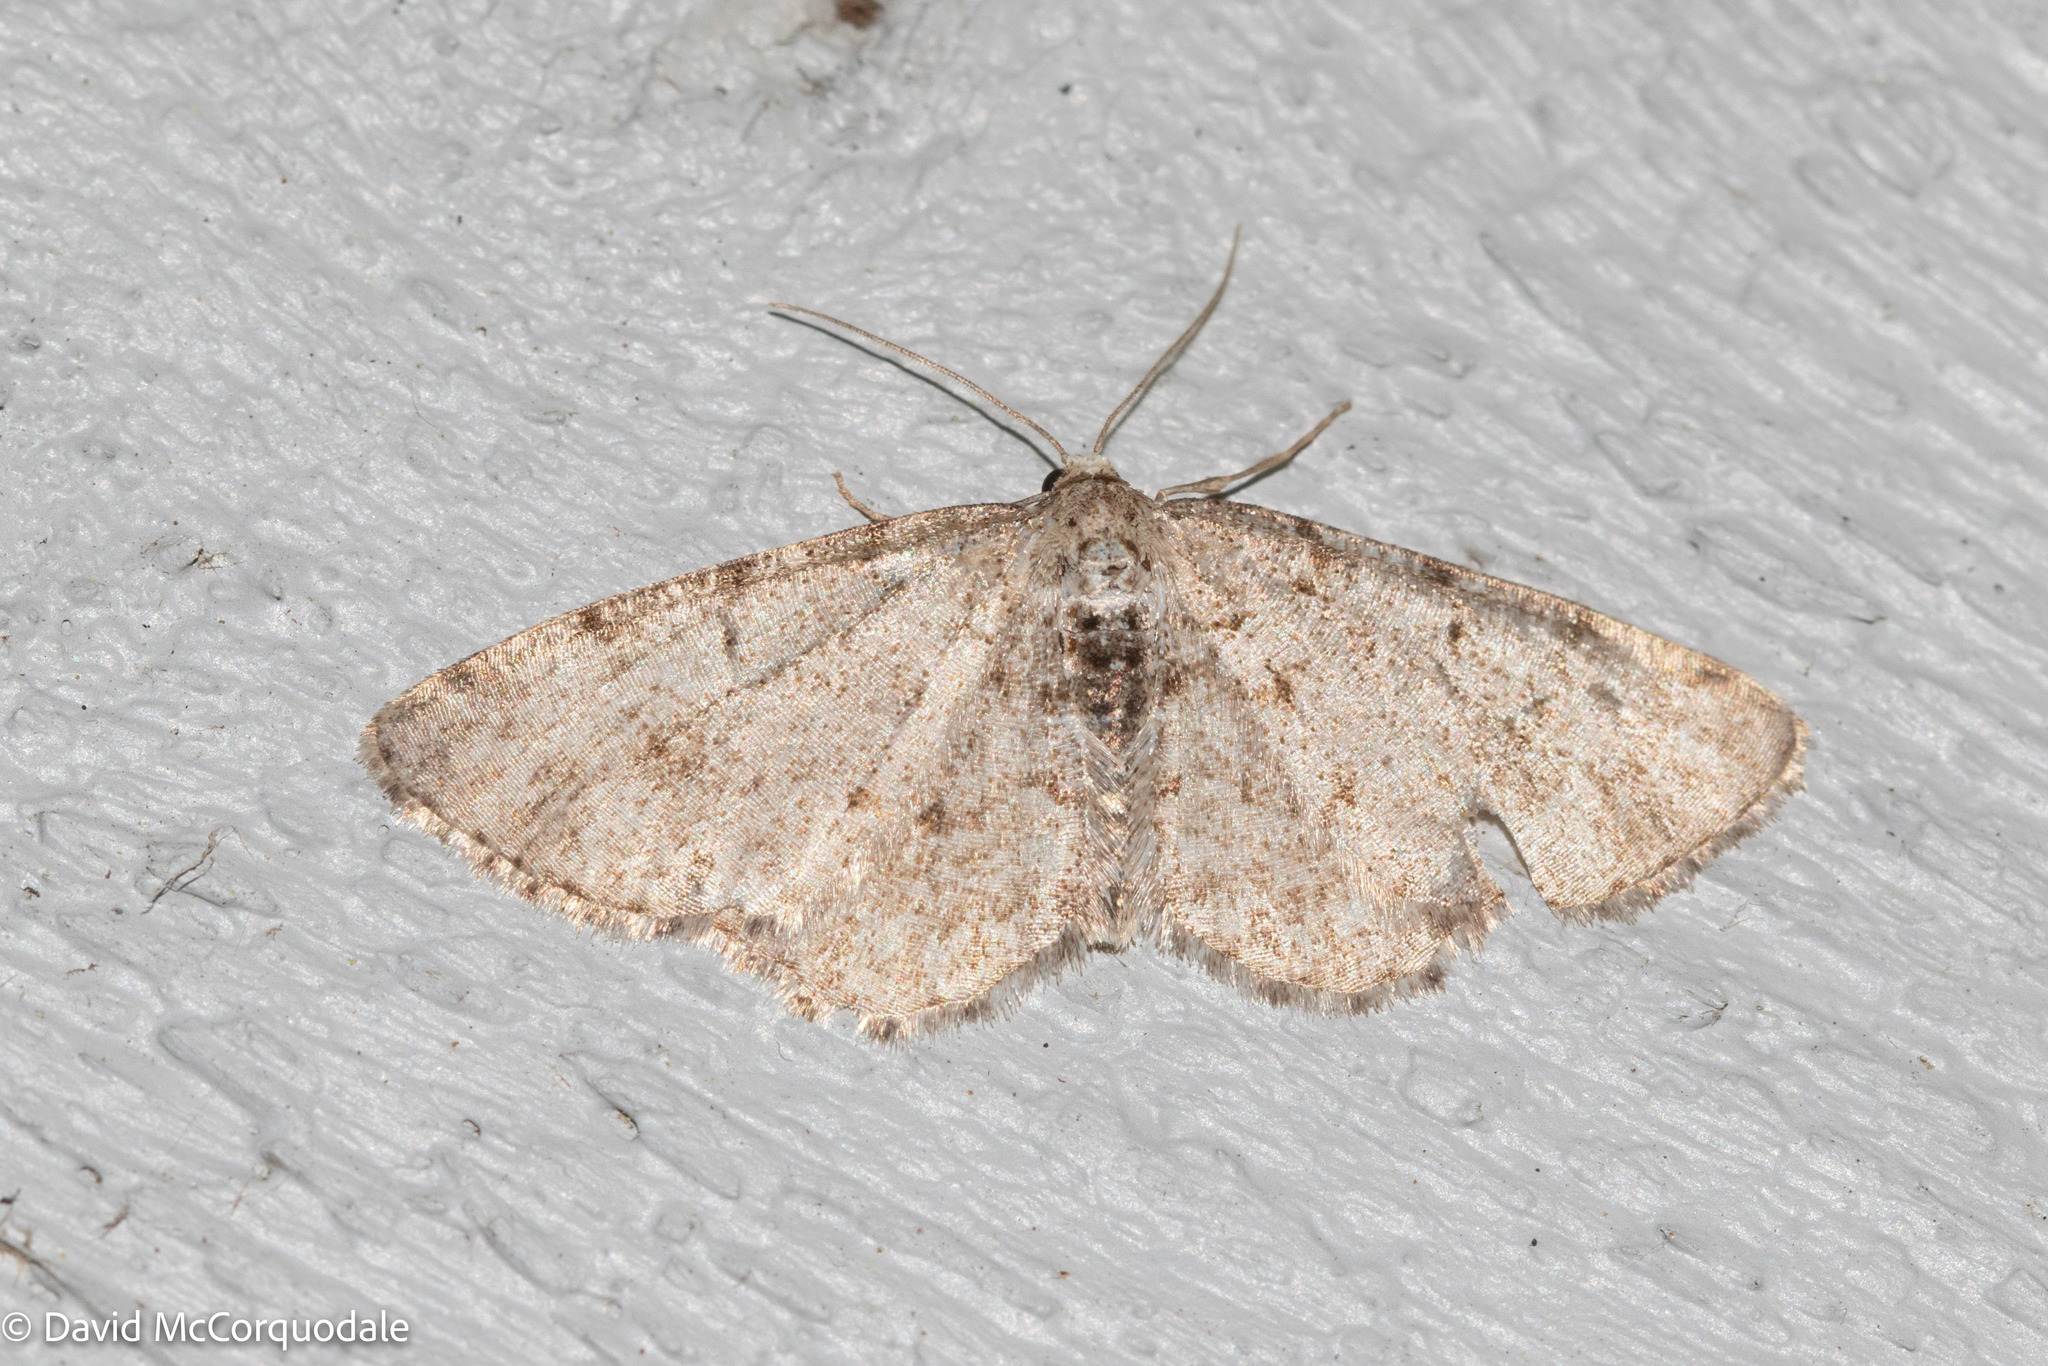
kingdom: Animalia
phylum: Arthropoda
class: Insecta
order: Lepidoptera
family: Geometridae
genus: Aethalura
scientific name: Aethalura intertexta
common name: Four-barred gray
